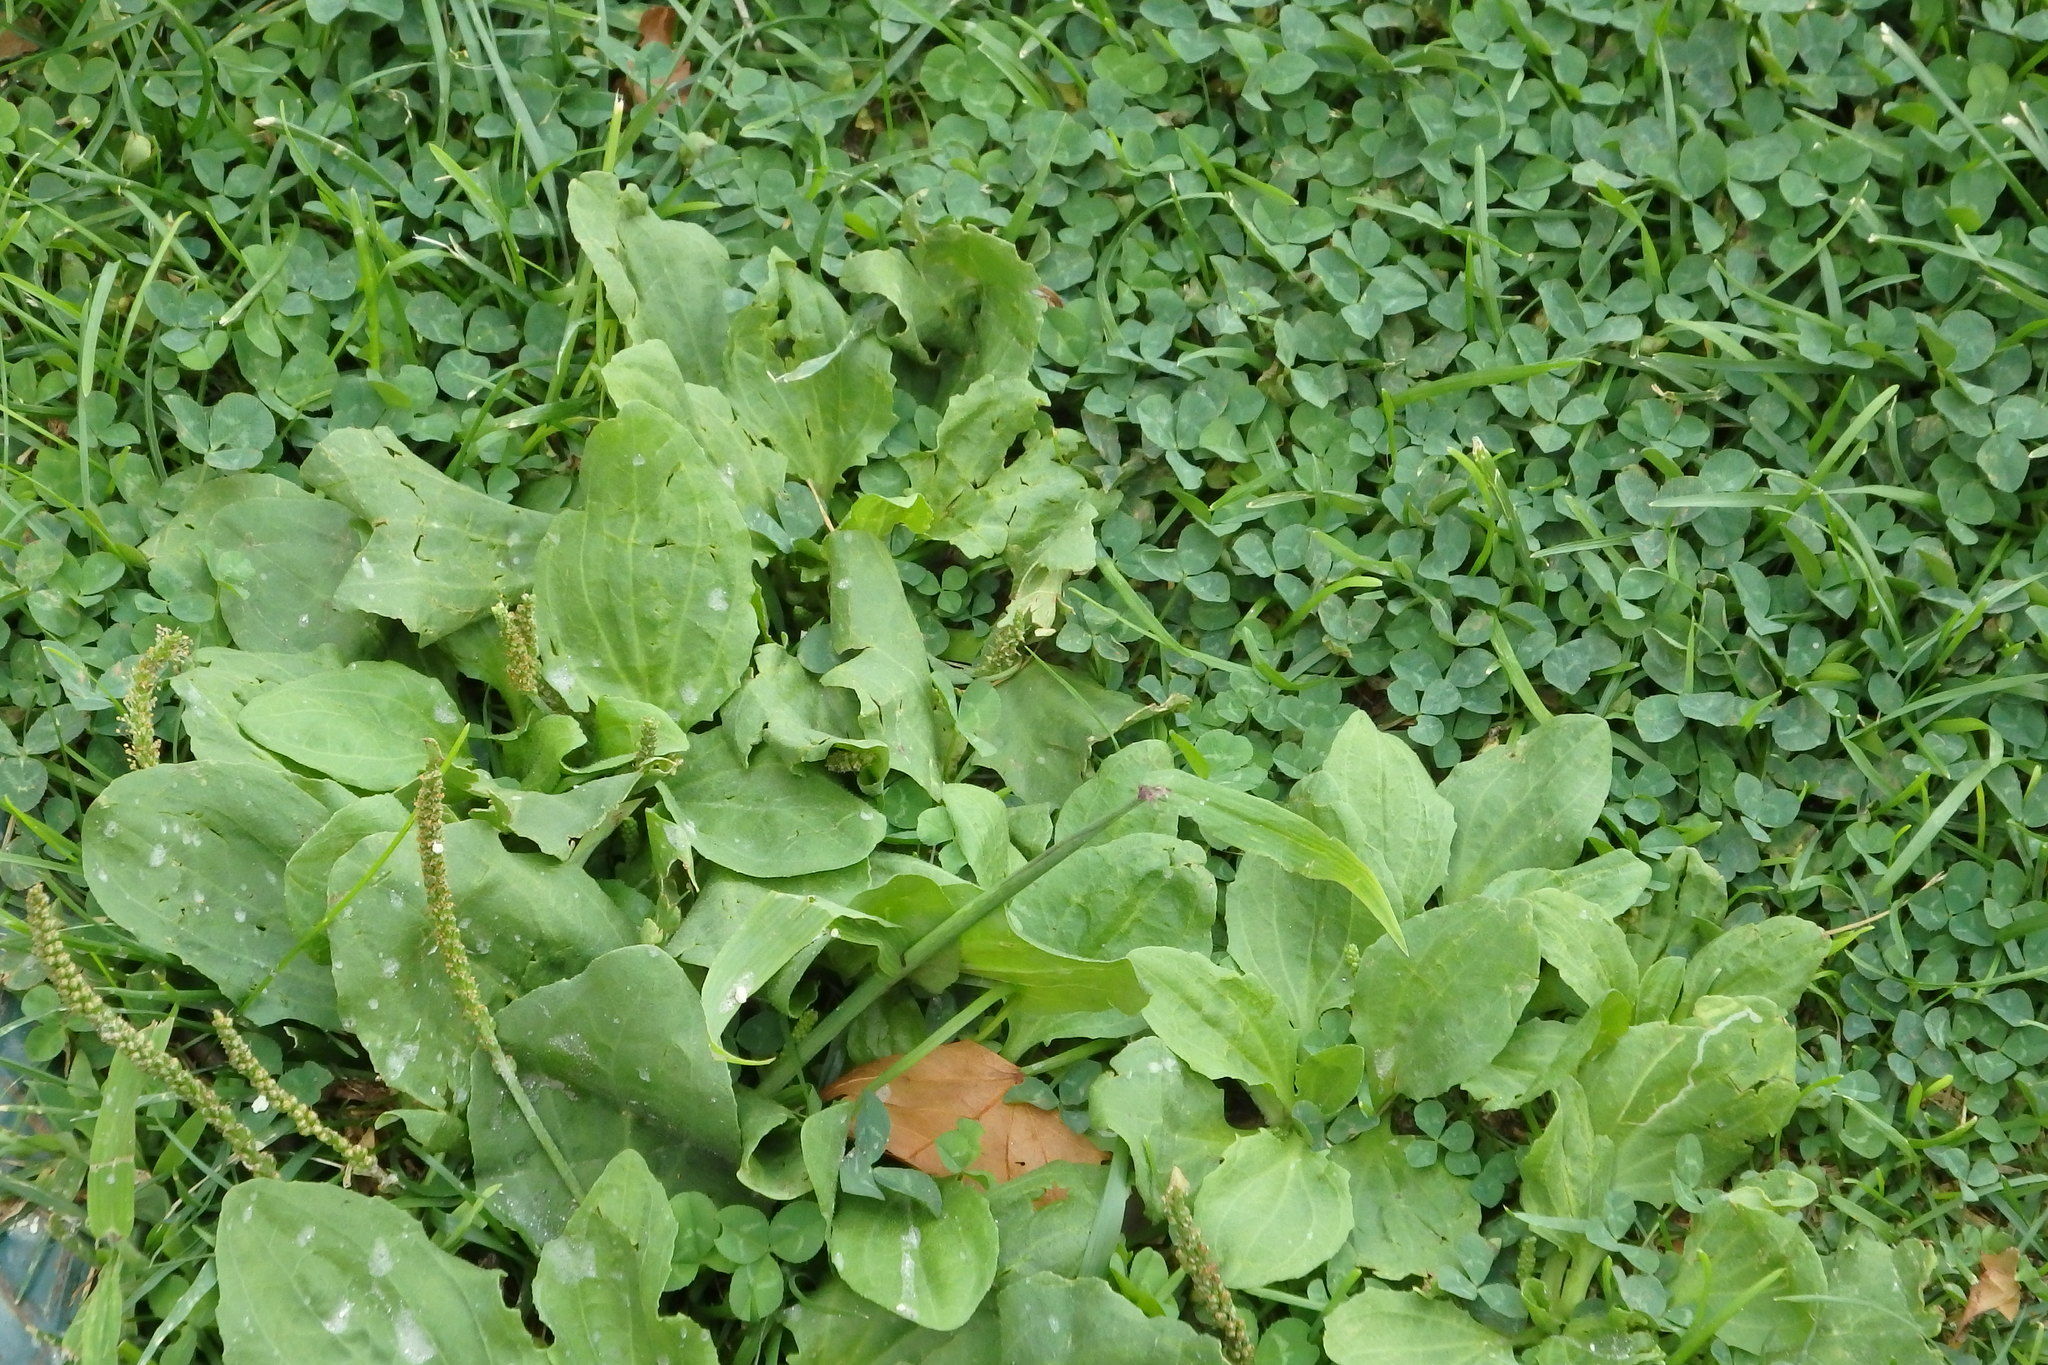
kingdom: Plantae
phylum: Tracheophyta
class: Magnoliopsida
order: Lamiales
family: Plantaginaceae
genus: Plantago
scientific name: Plantago major
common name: Common plantain
